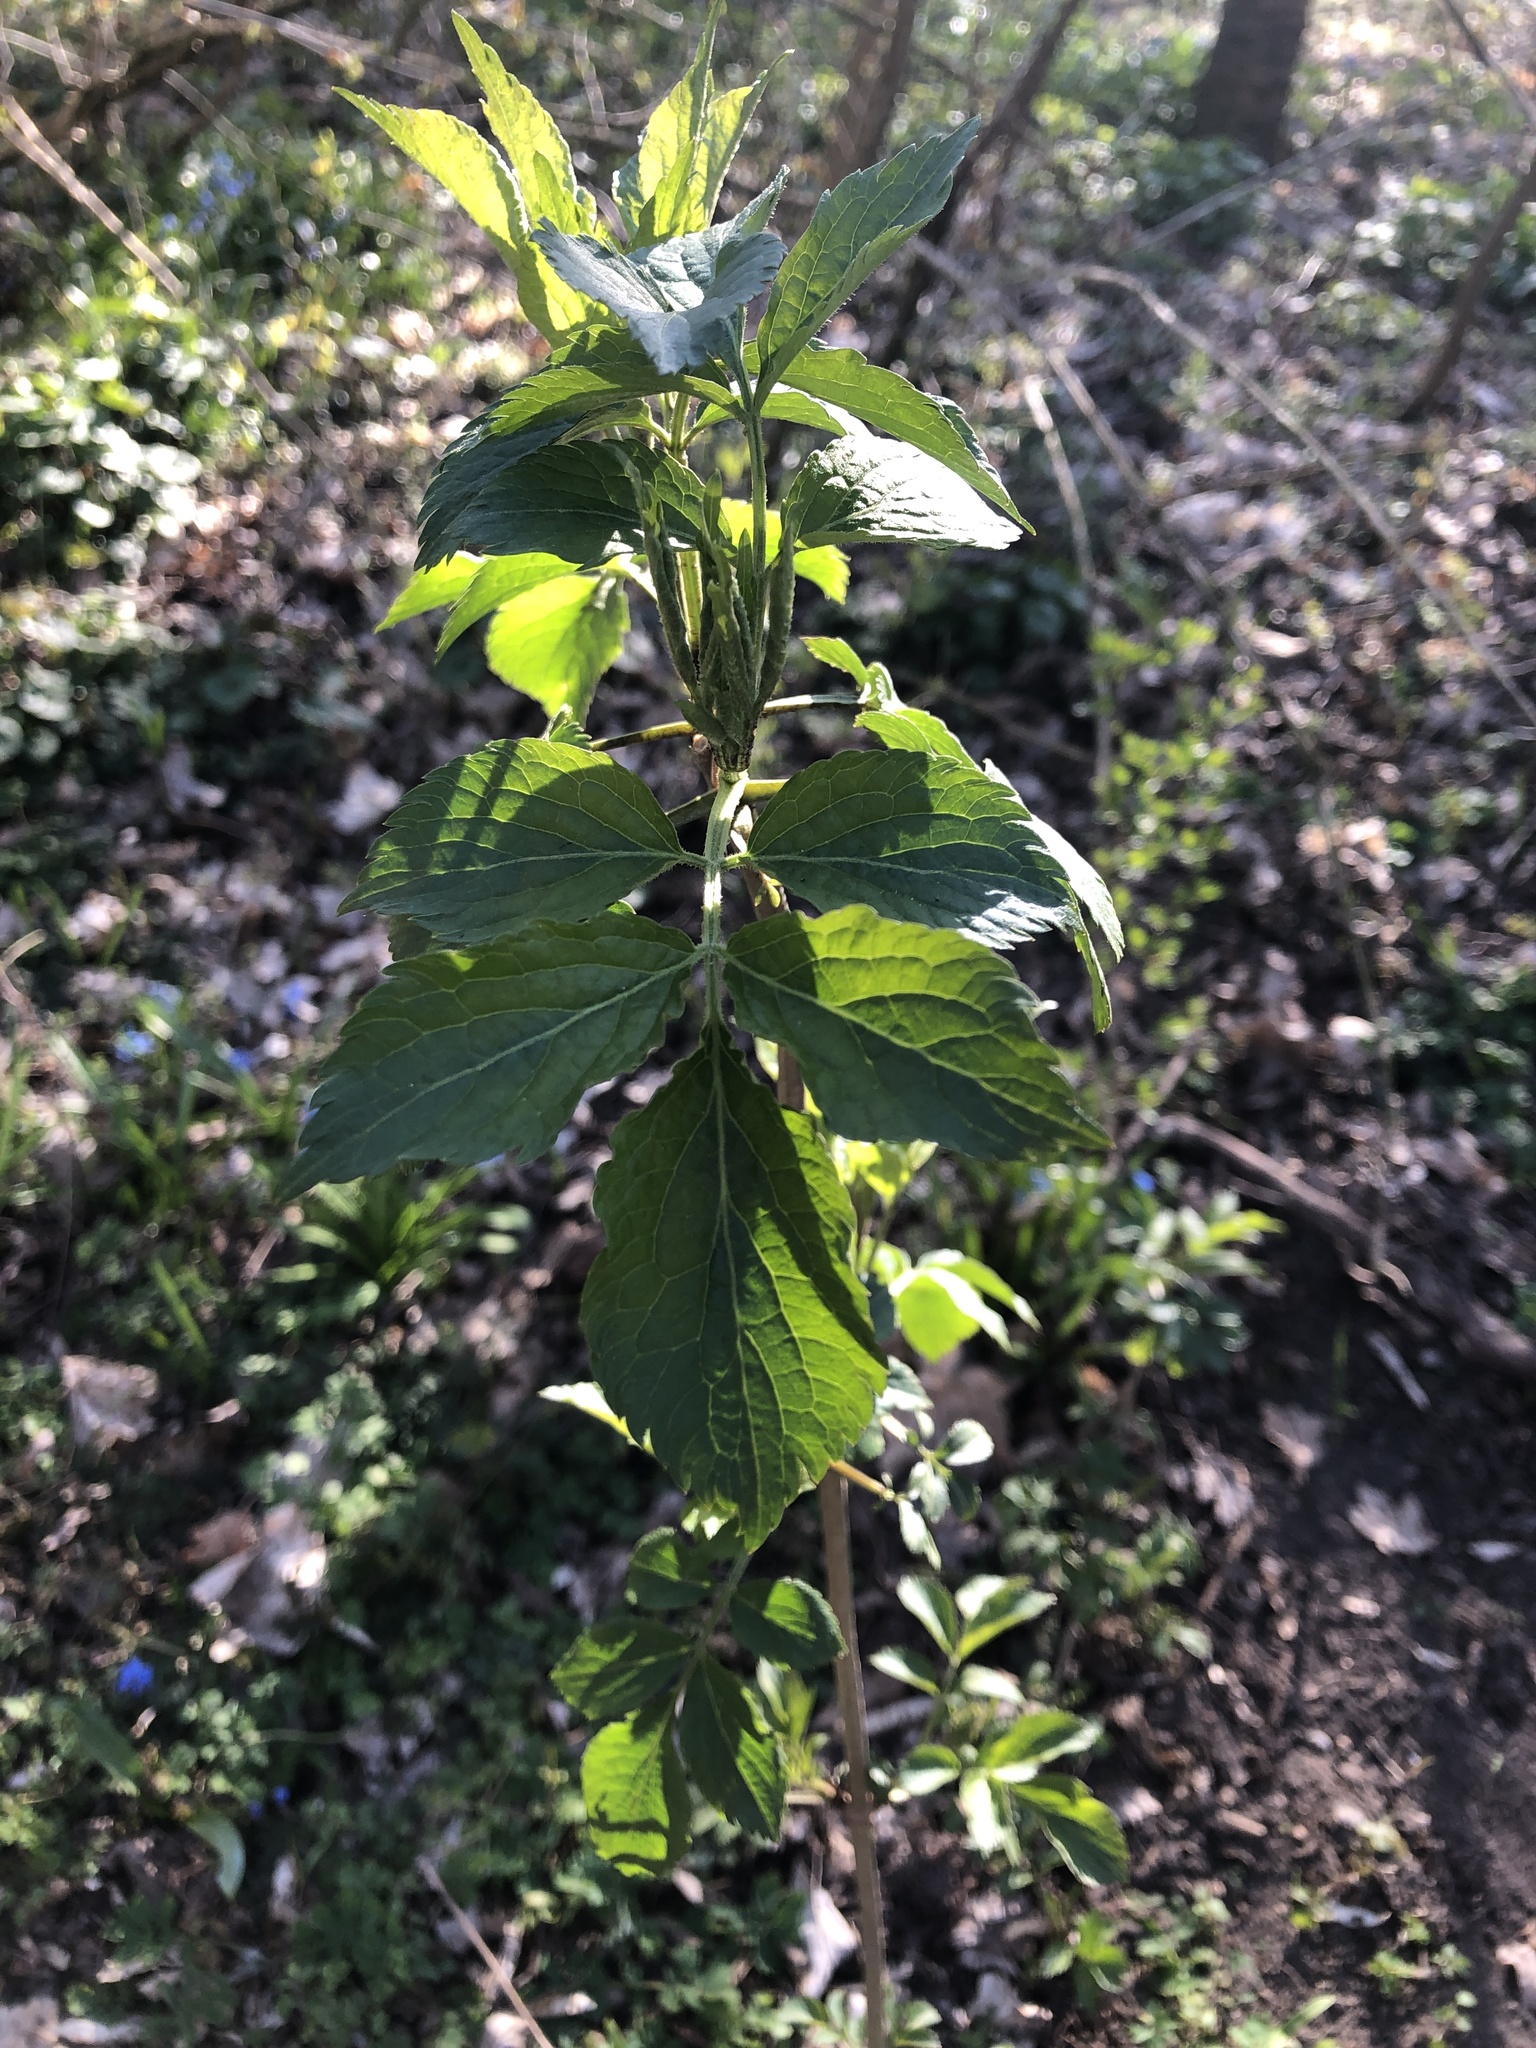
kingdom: Plantae
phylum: Tracheophyta
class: Magnoliopsida
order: Dipsacales
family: Viburnaceae
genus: Sambucus
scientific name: Sambucus nigra
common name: Elder
